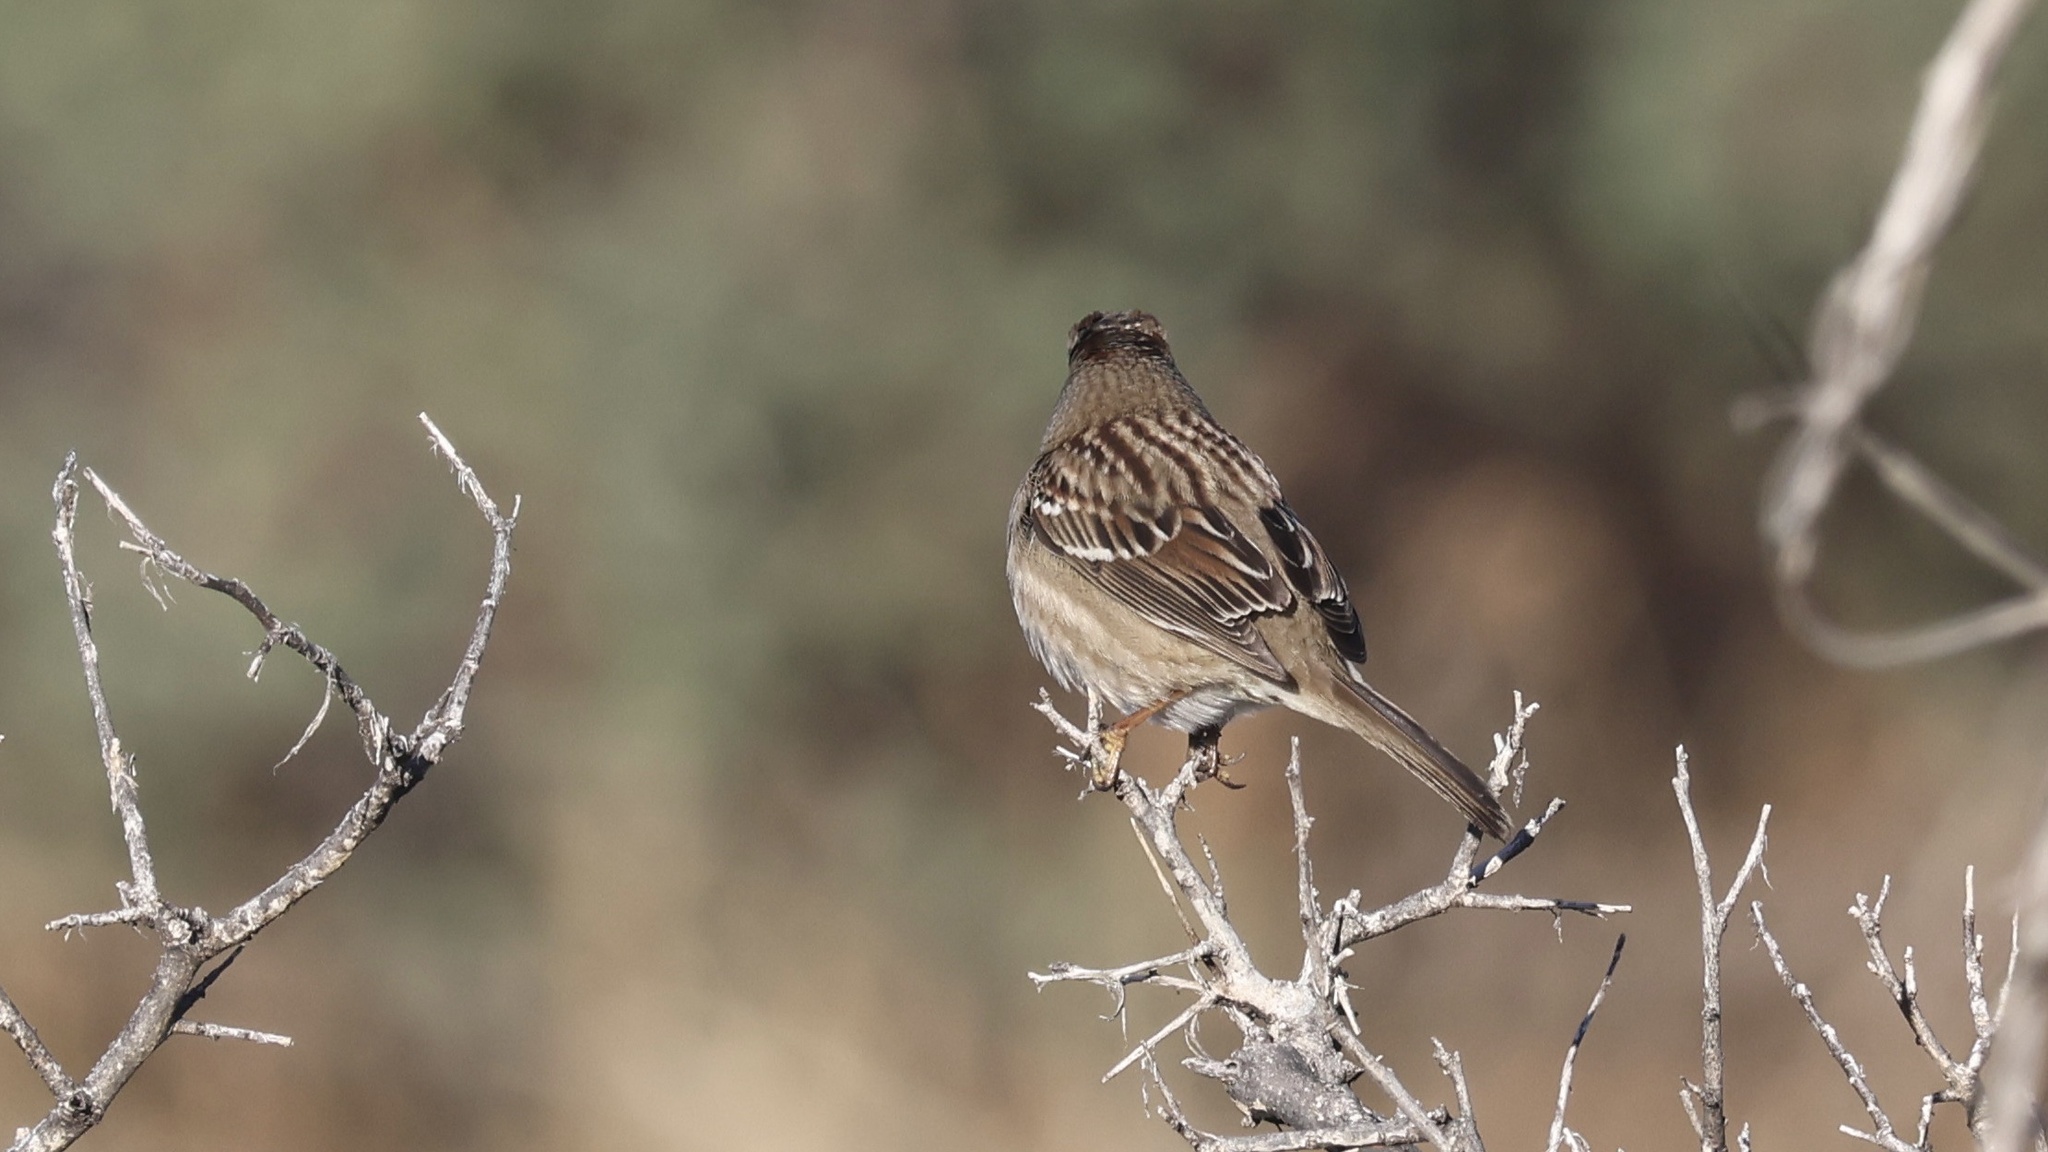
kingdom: Animalia
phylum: Chordata
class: Aves
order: Passeriformes
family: Passerellidae
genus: Zonotrichia
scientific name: Zonotrichia leucophrys
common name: White-crowned sparrow
